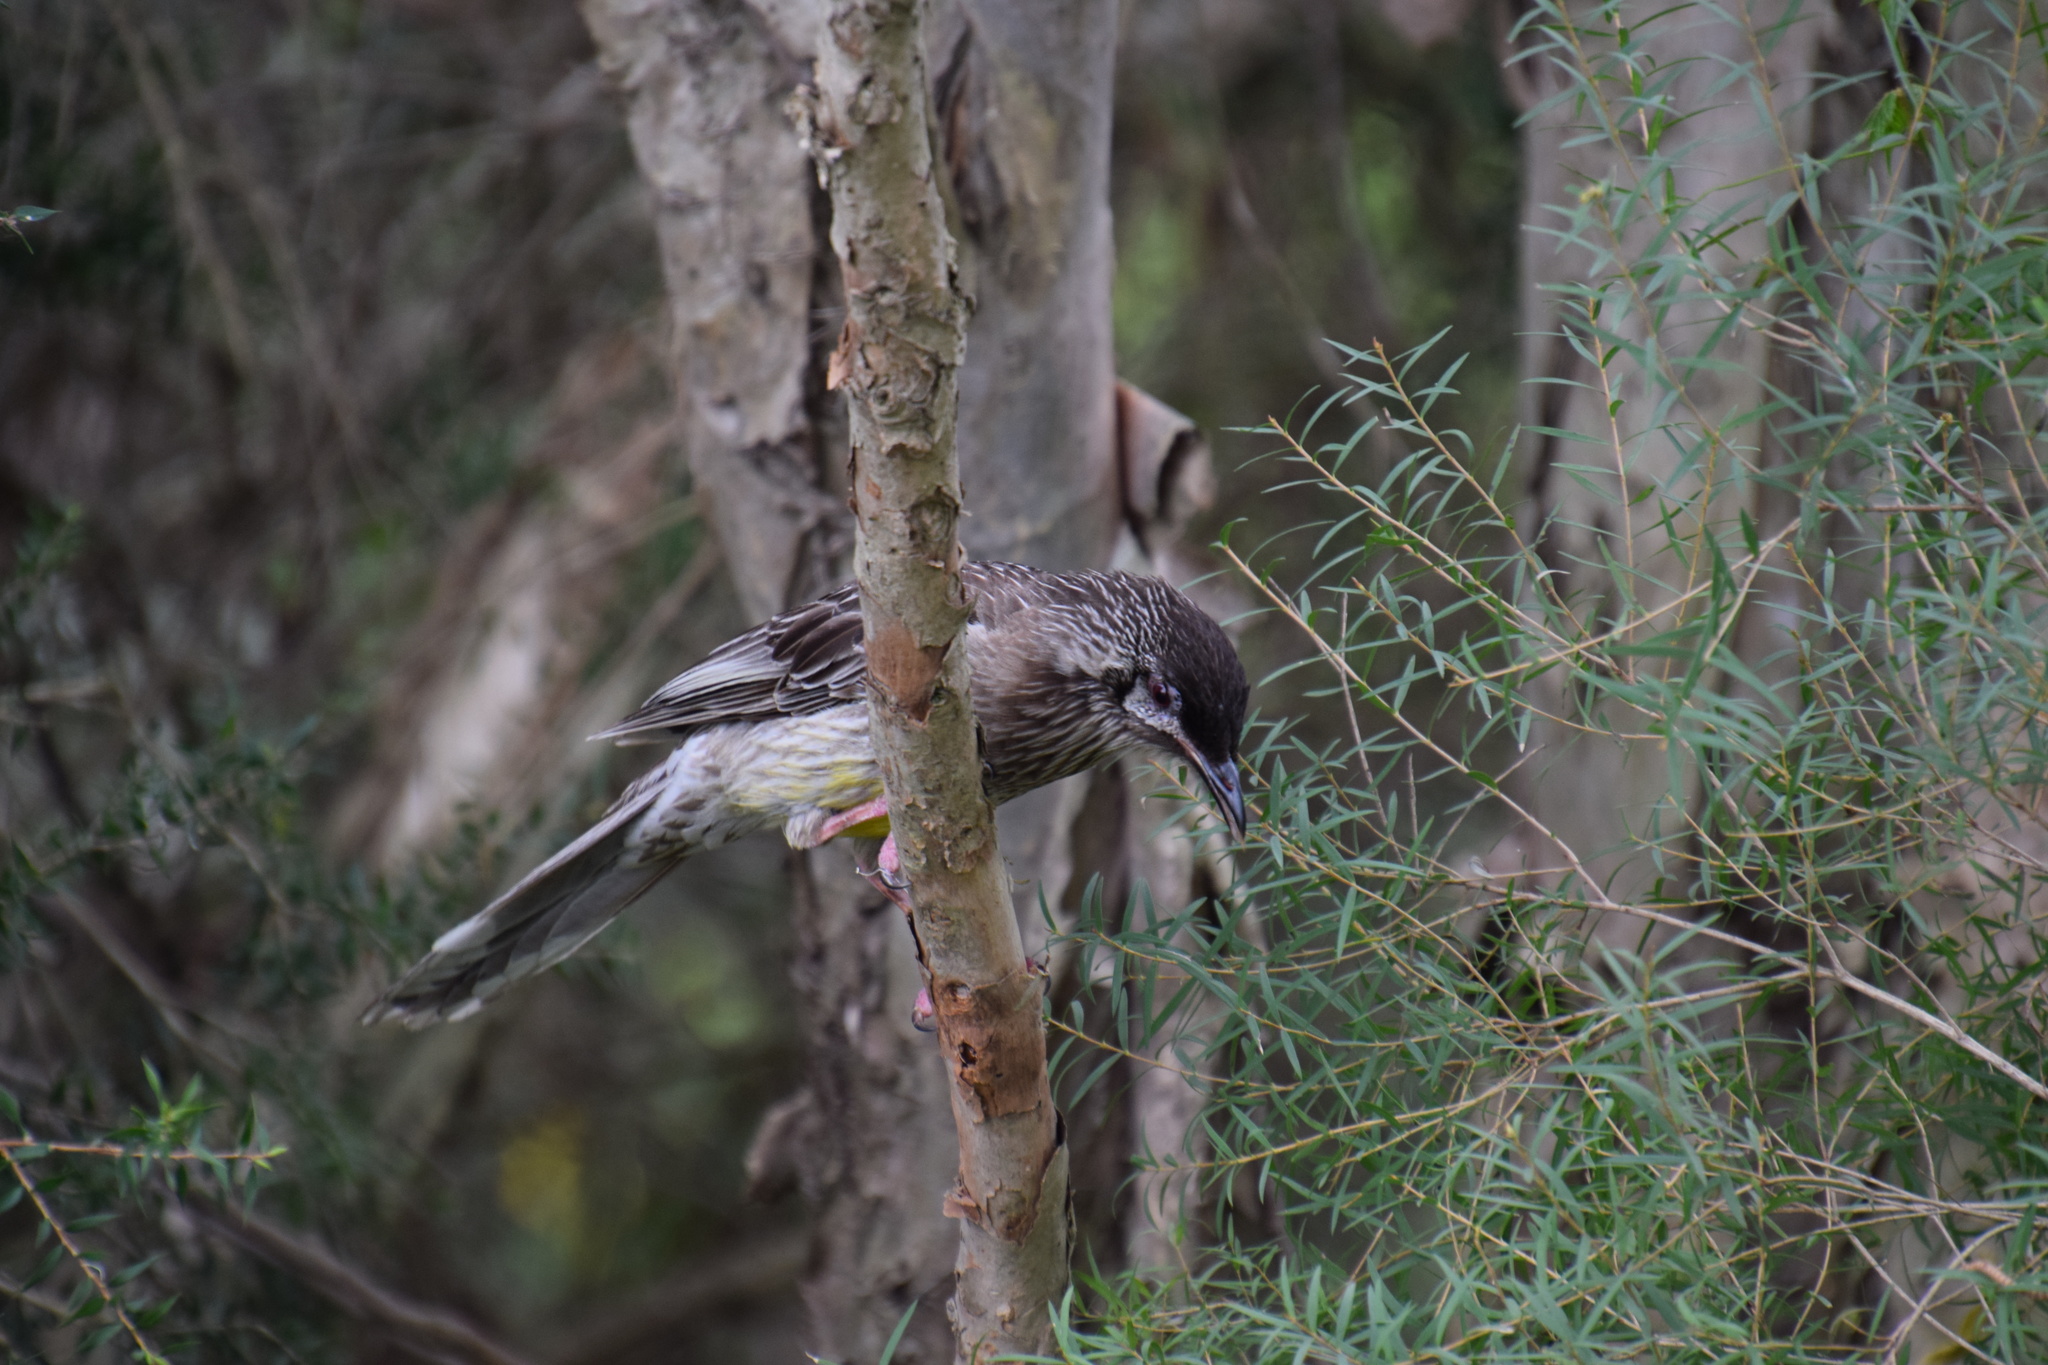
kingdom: Animalia
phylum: Chordata
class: Aves
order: Passeriformes
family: Meliphagidae
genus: Anthochaera
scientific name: Anthochaera carunculata
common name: Red wattlebird
